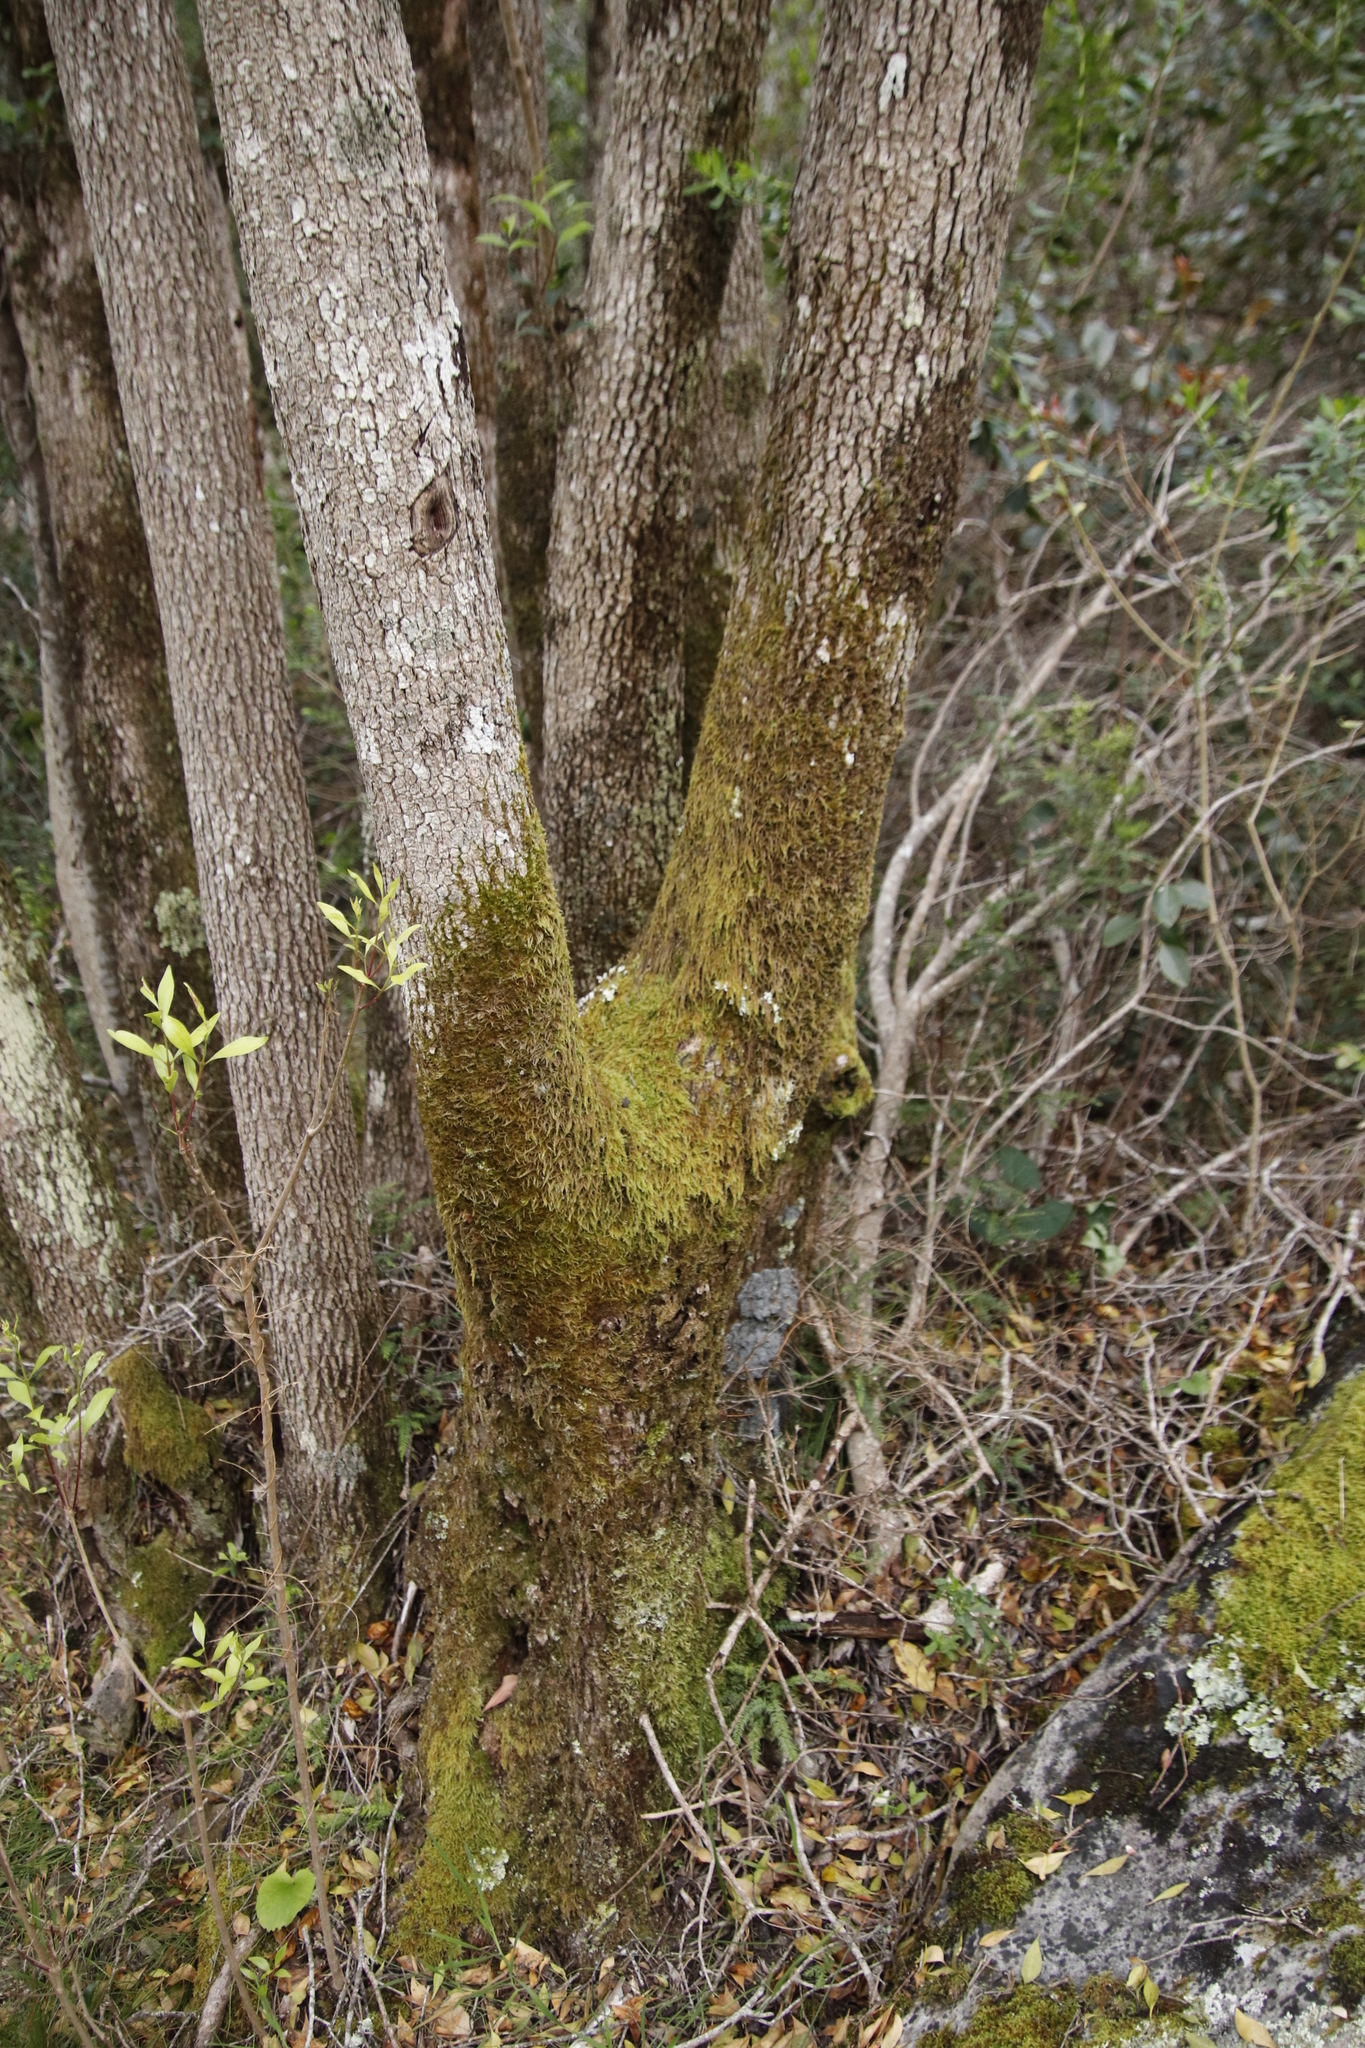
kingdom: Plantae
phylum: Bryophyta
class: Bryopsida
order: Hypnales
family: Hypnaceae
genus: Hypnum
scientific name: Hypnum cupressiforme
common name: Cypress-leaved plait-moss
